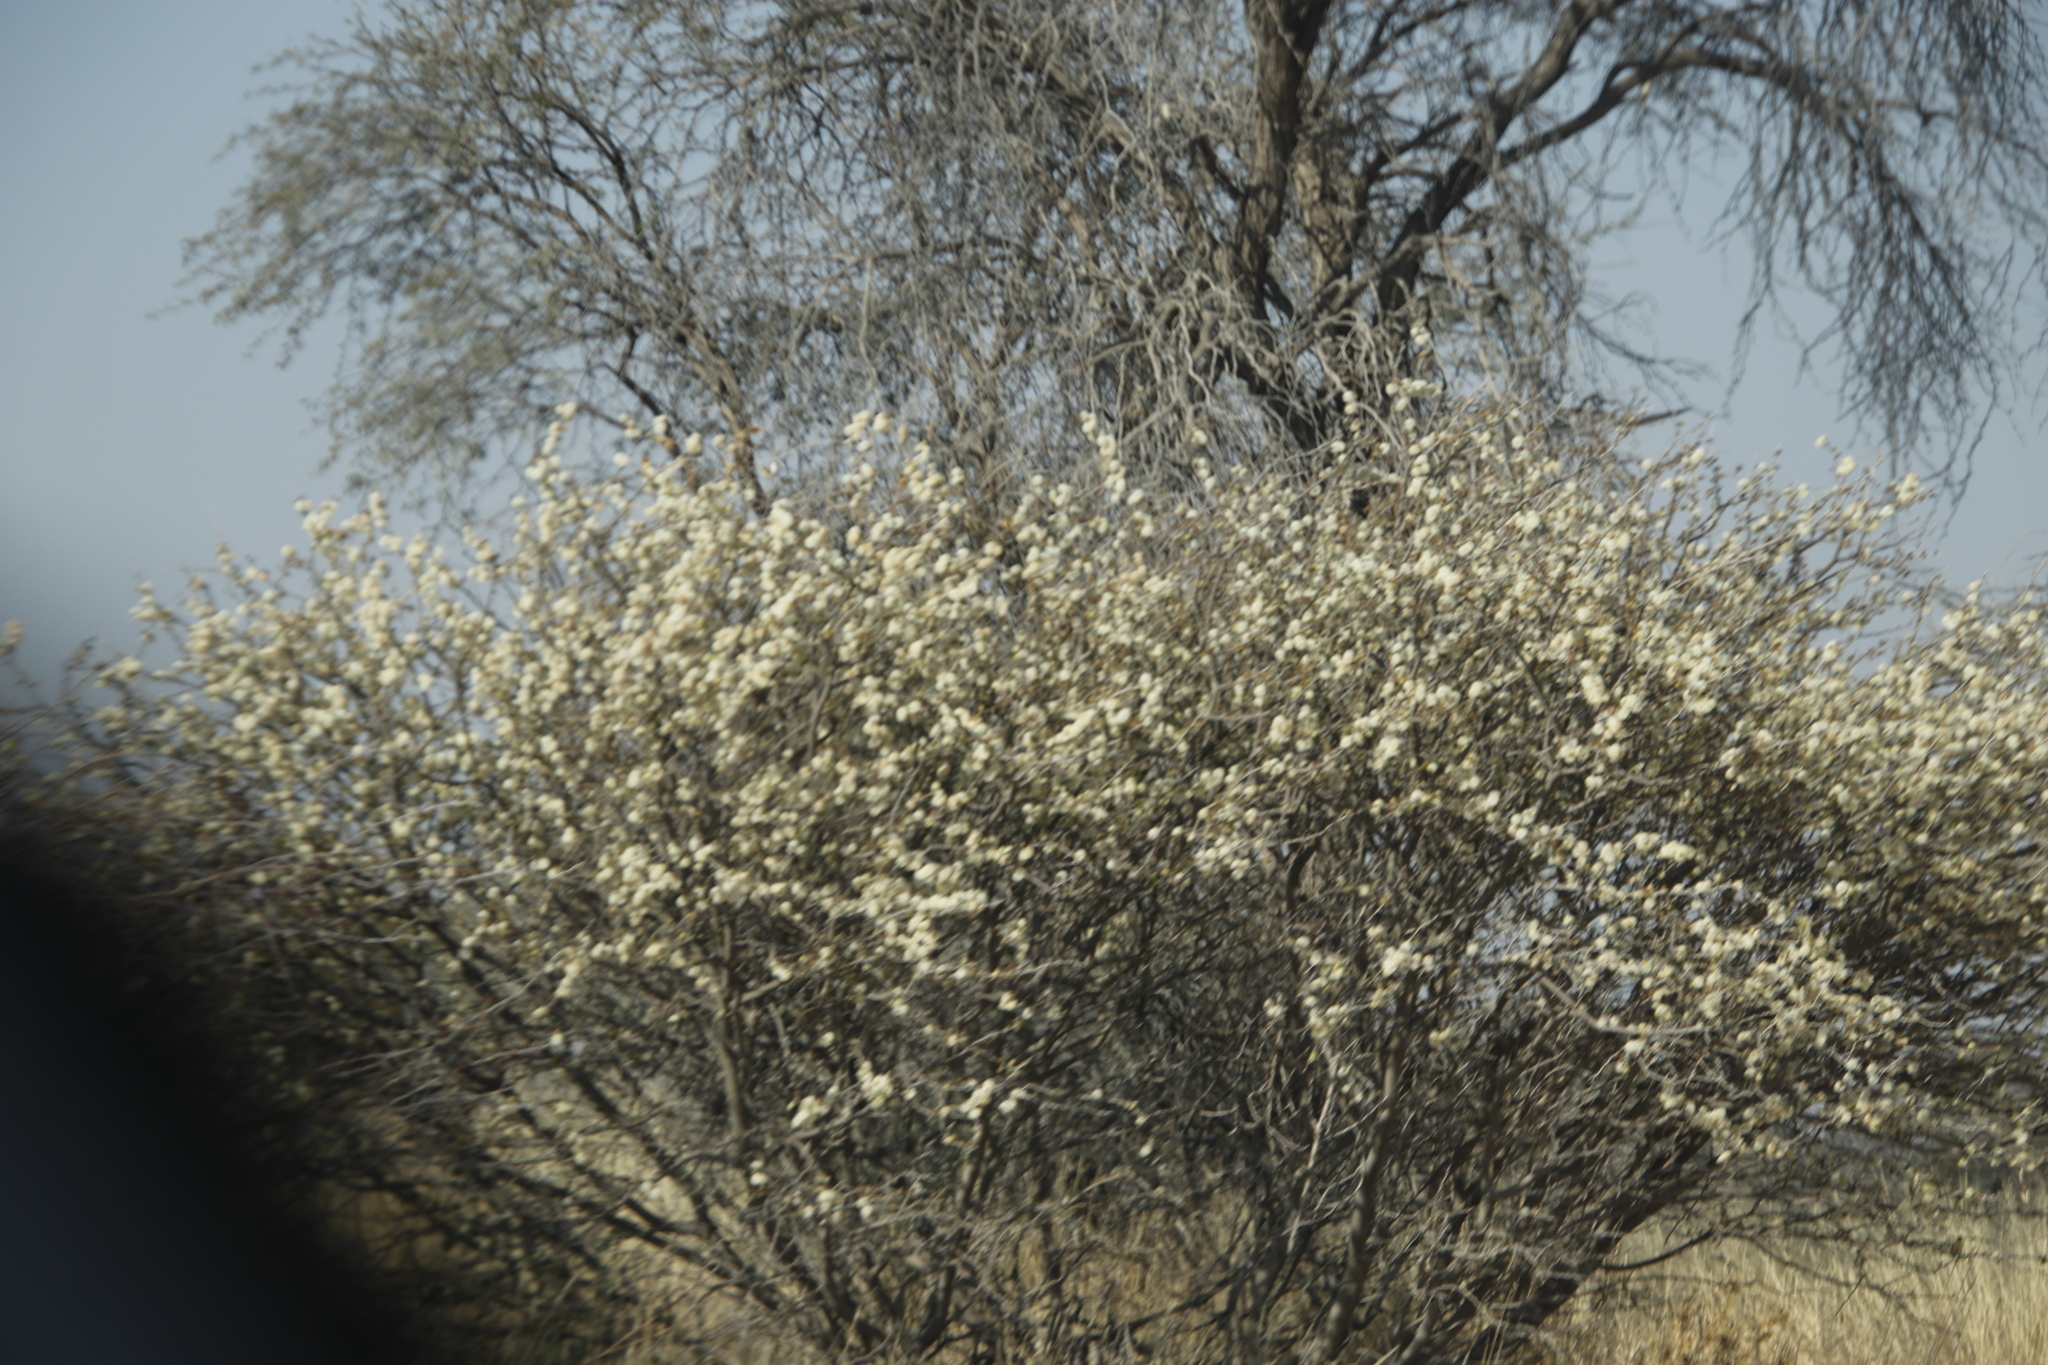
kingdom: Plantae
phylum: Tracheophyta
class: Magnoliopsida
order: Fabales
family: Fabaceae
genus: Senegalia
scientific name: Senegalia mellifera
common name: Hookthorn
